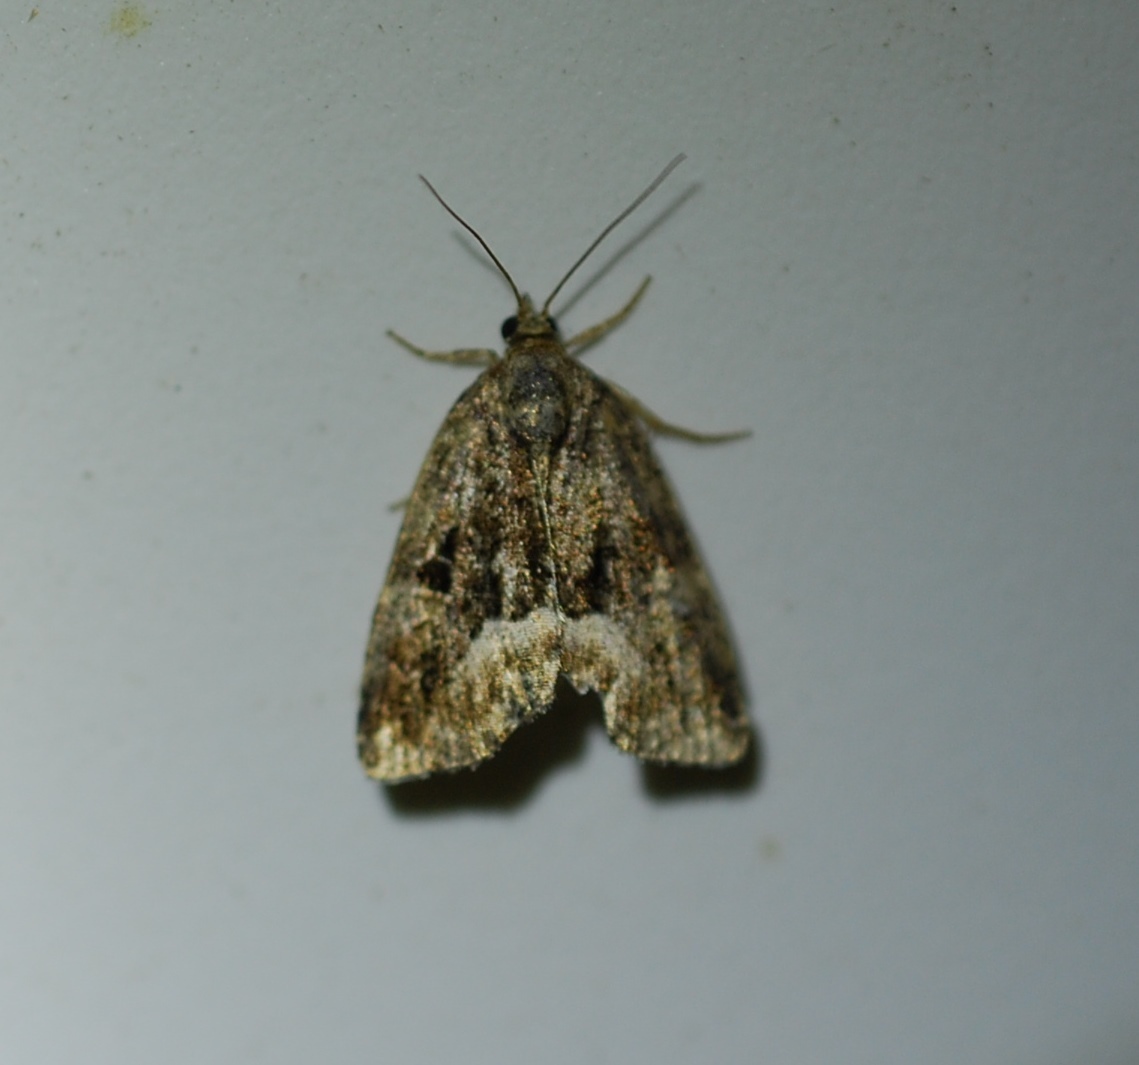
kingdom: Animalia
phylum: Arthropoda
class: Insecta
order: Lepidoptera
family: Noctuidae
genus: Deltote
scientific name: Deltote pygarga
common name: Marbled white spot
